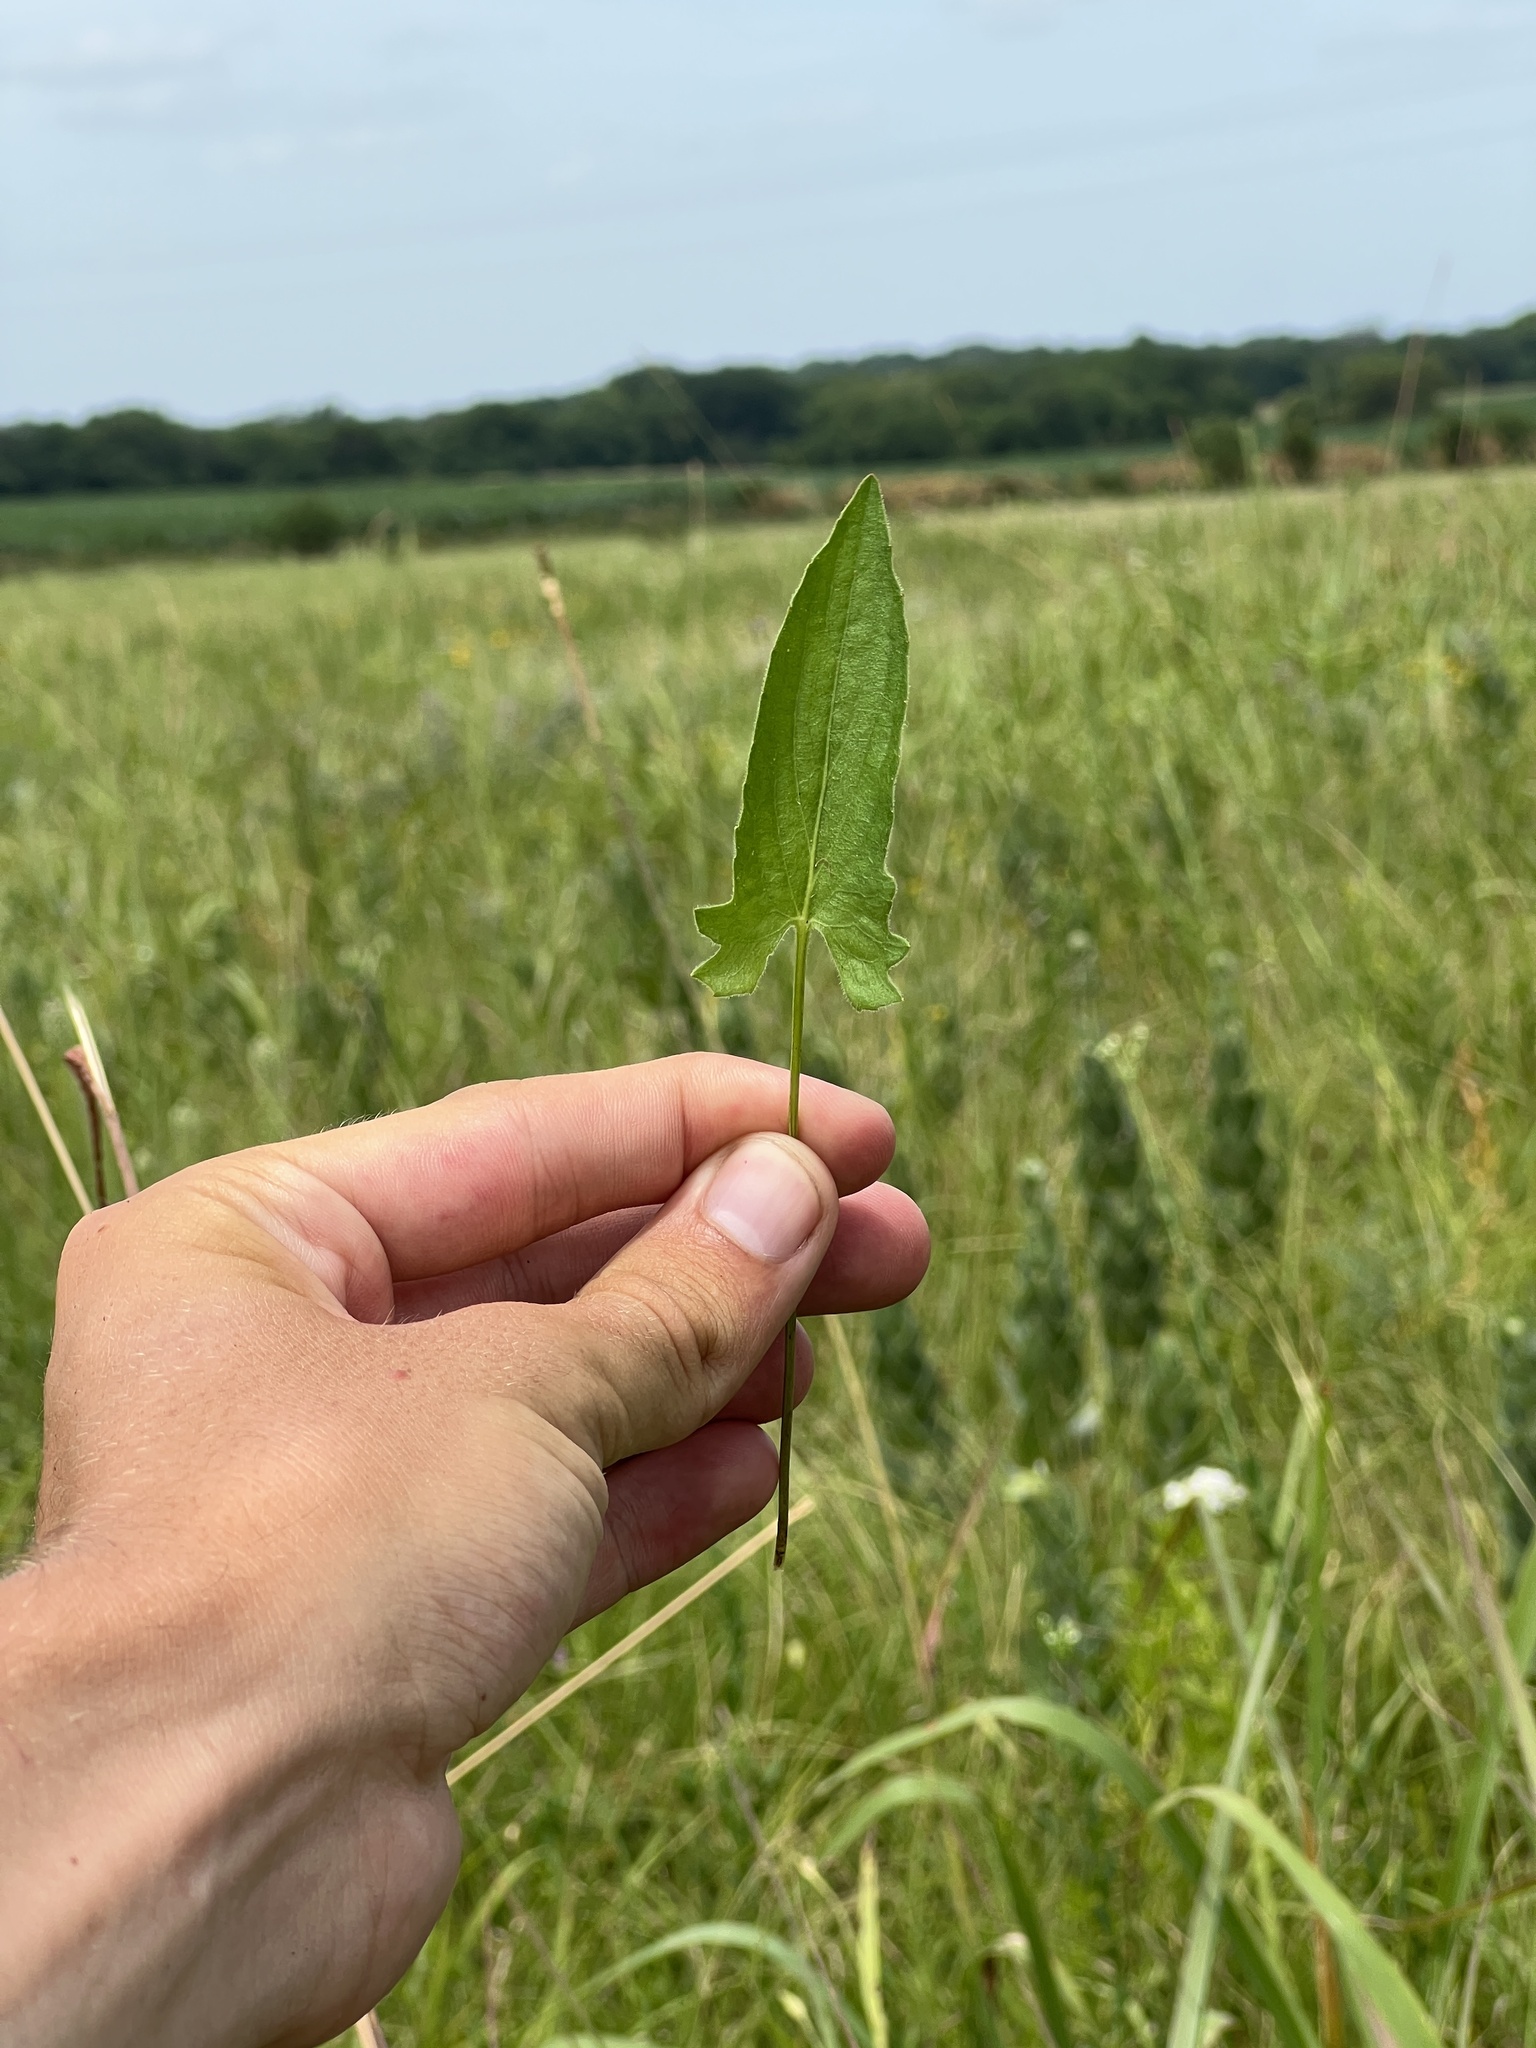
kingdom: Plantae
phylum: Tracheophyta
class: Magnoliopsida
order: Malpighiales
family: Violaceae
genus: Viola
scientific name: Viola sagittata
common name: Arrowhead violet
